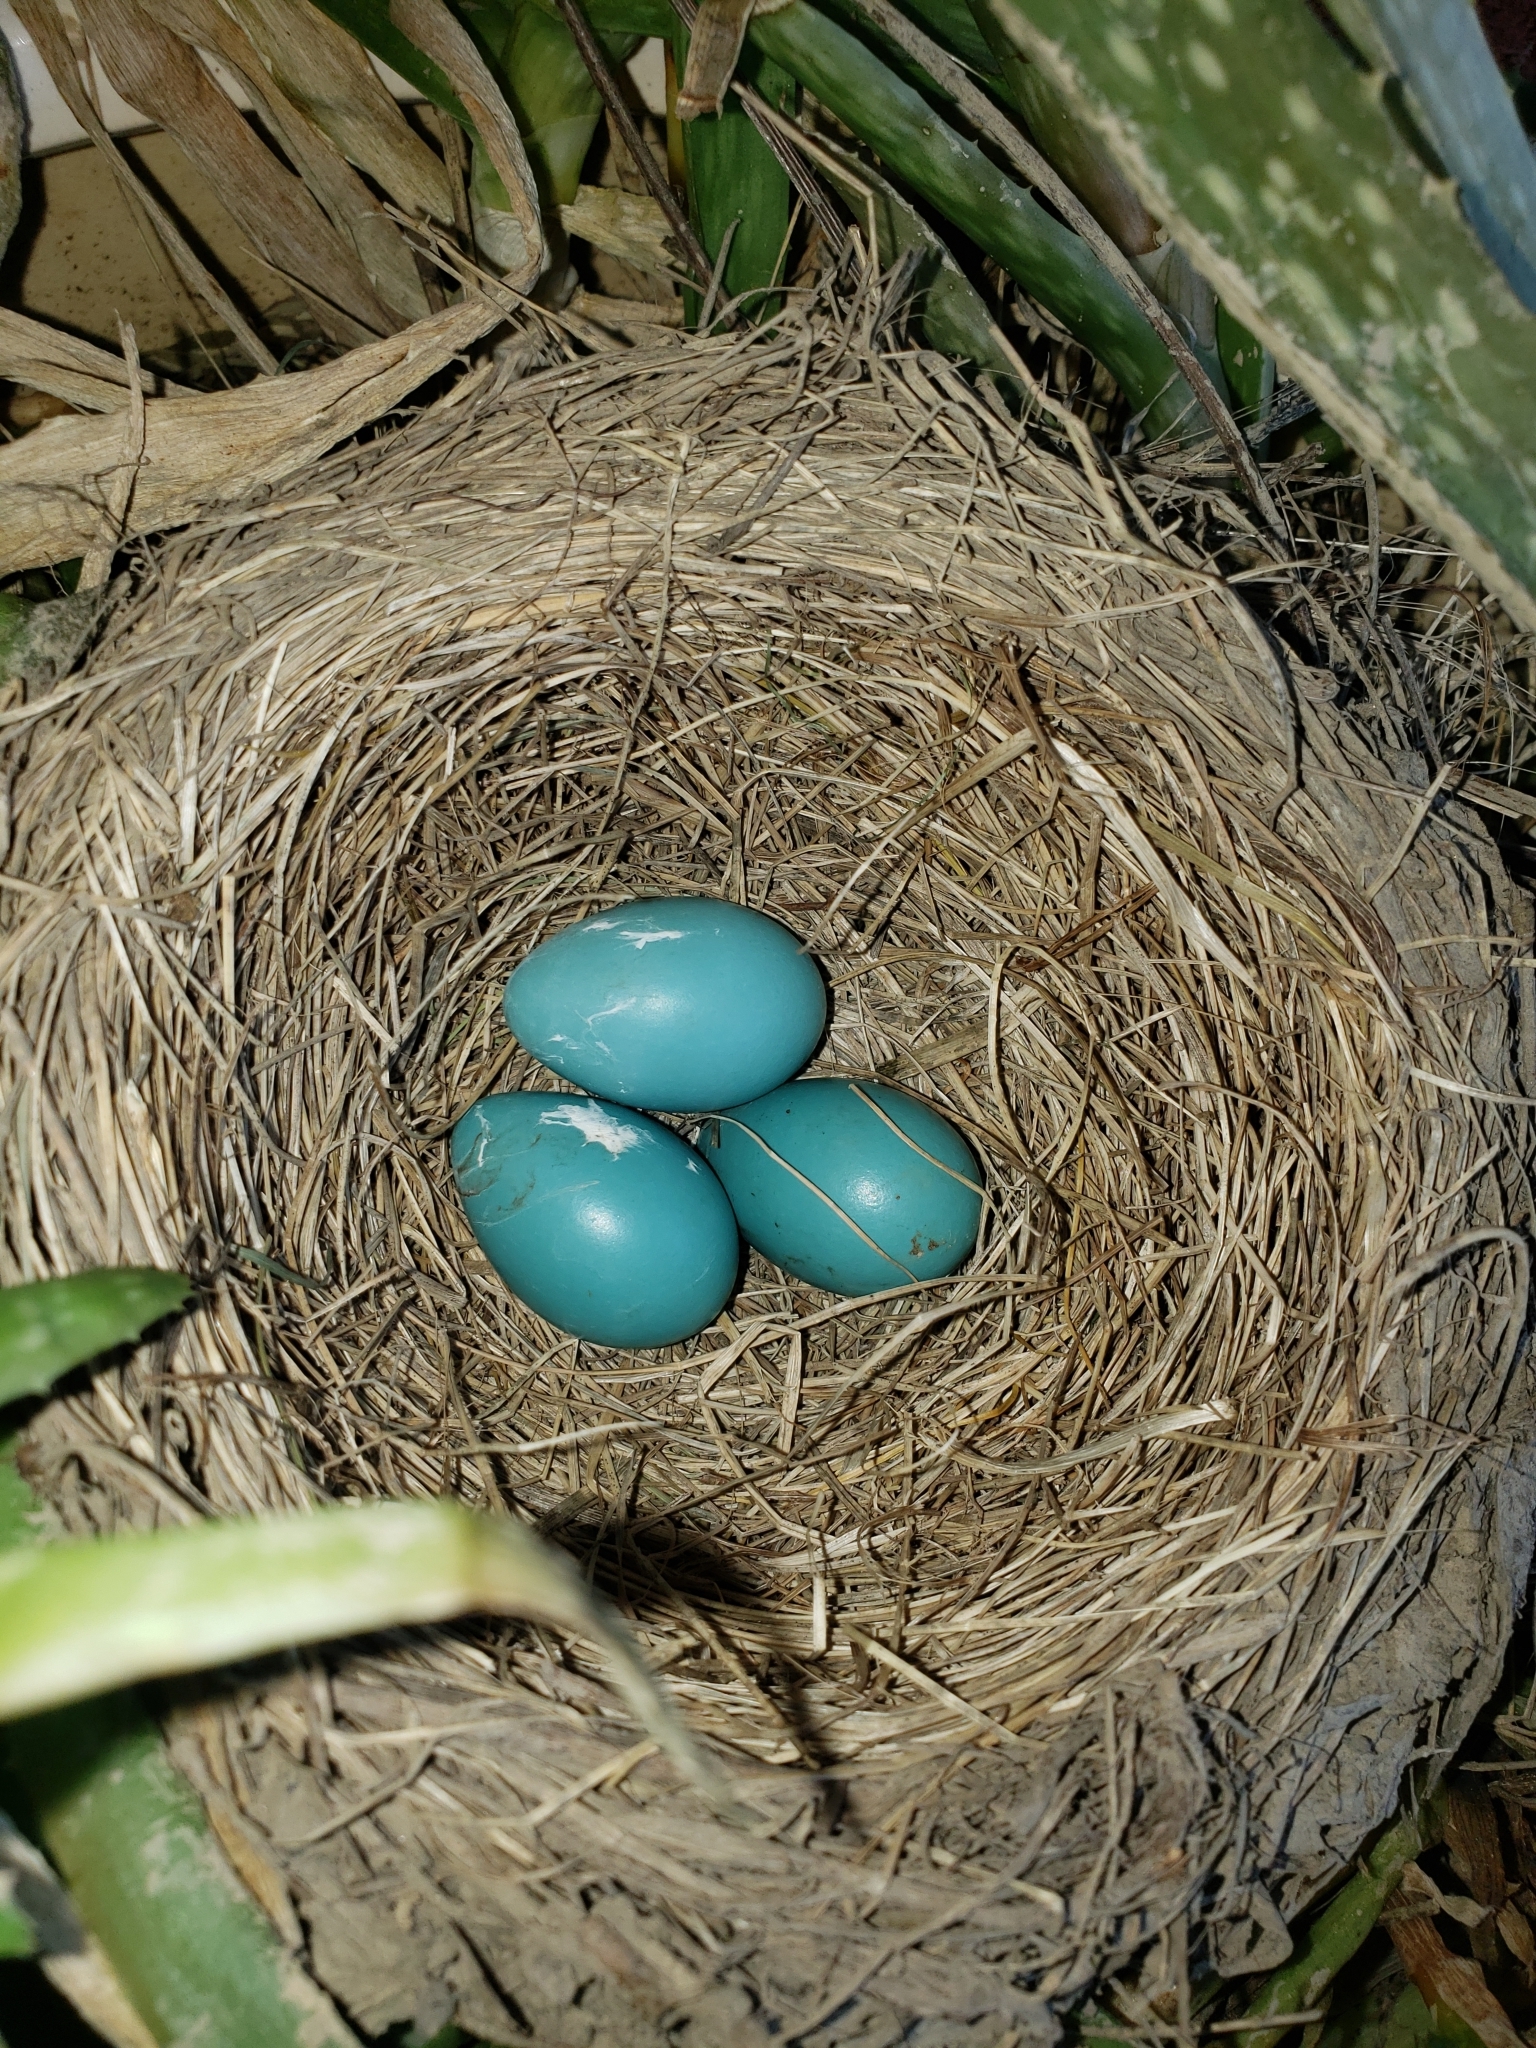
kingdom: Animalia
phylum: Chordata
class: Aves
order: Passeriformes
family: Turdidae
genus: Turdus
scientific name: Turdus migratorius
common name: American robin
